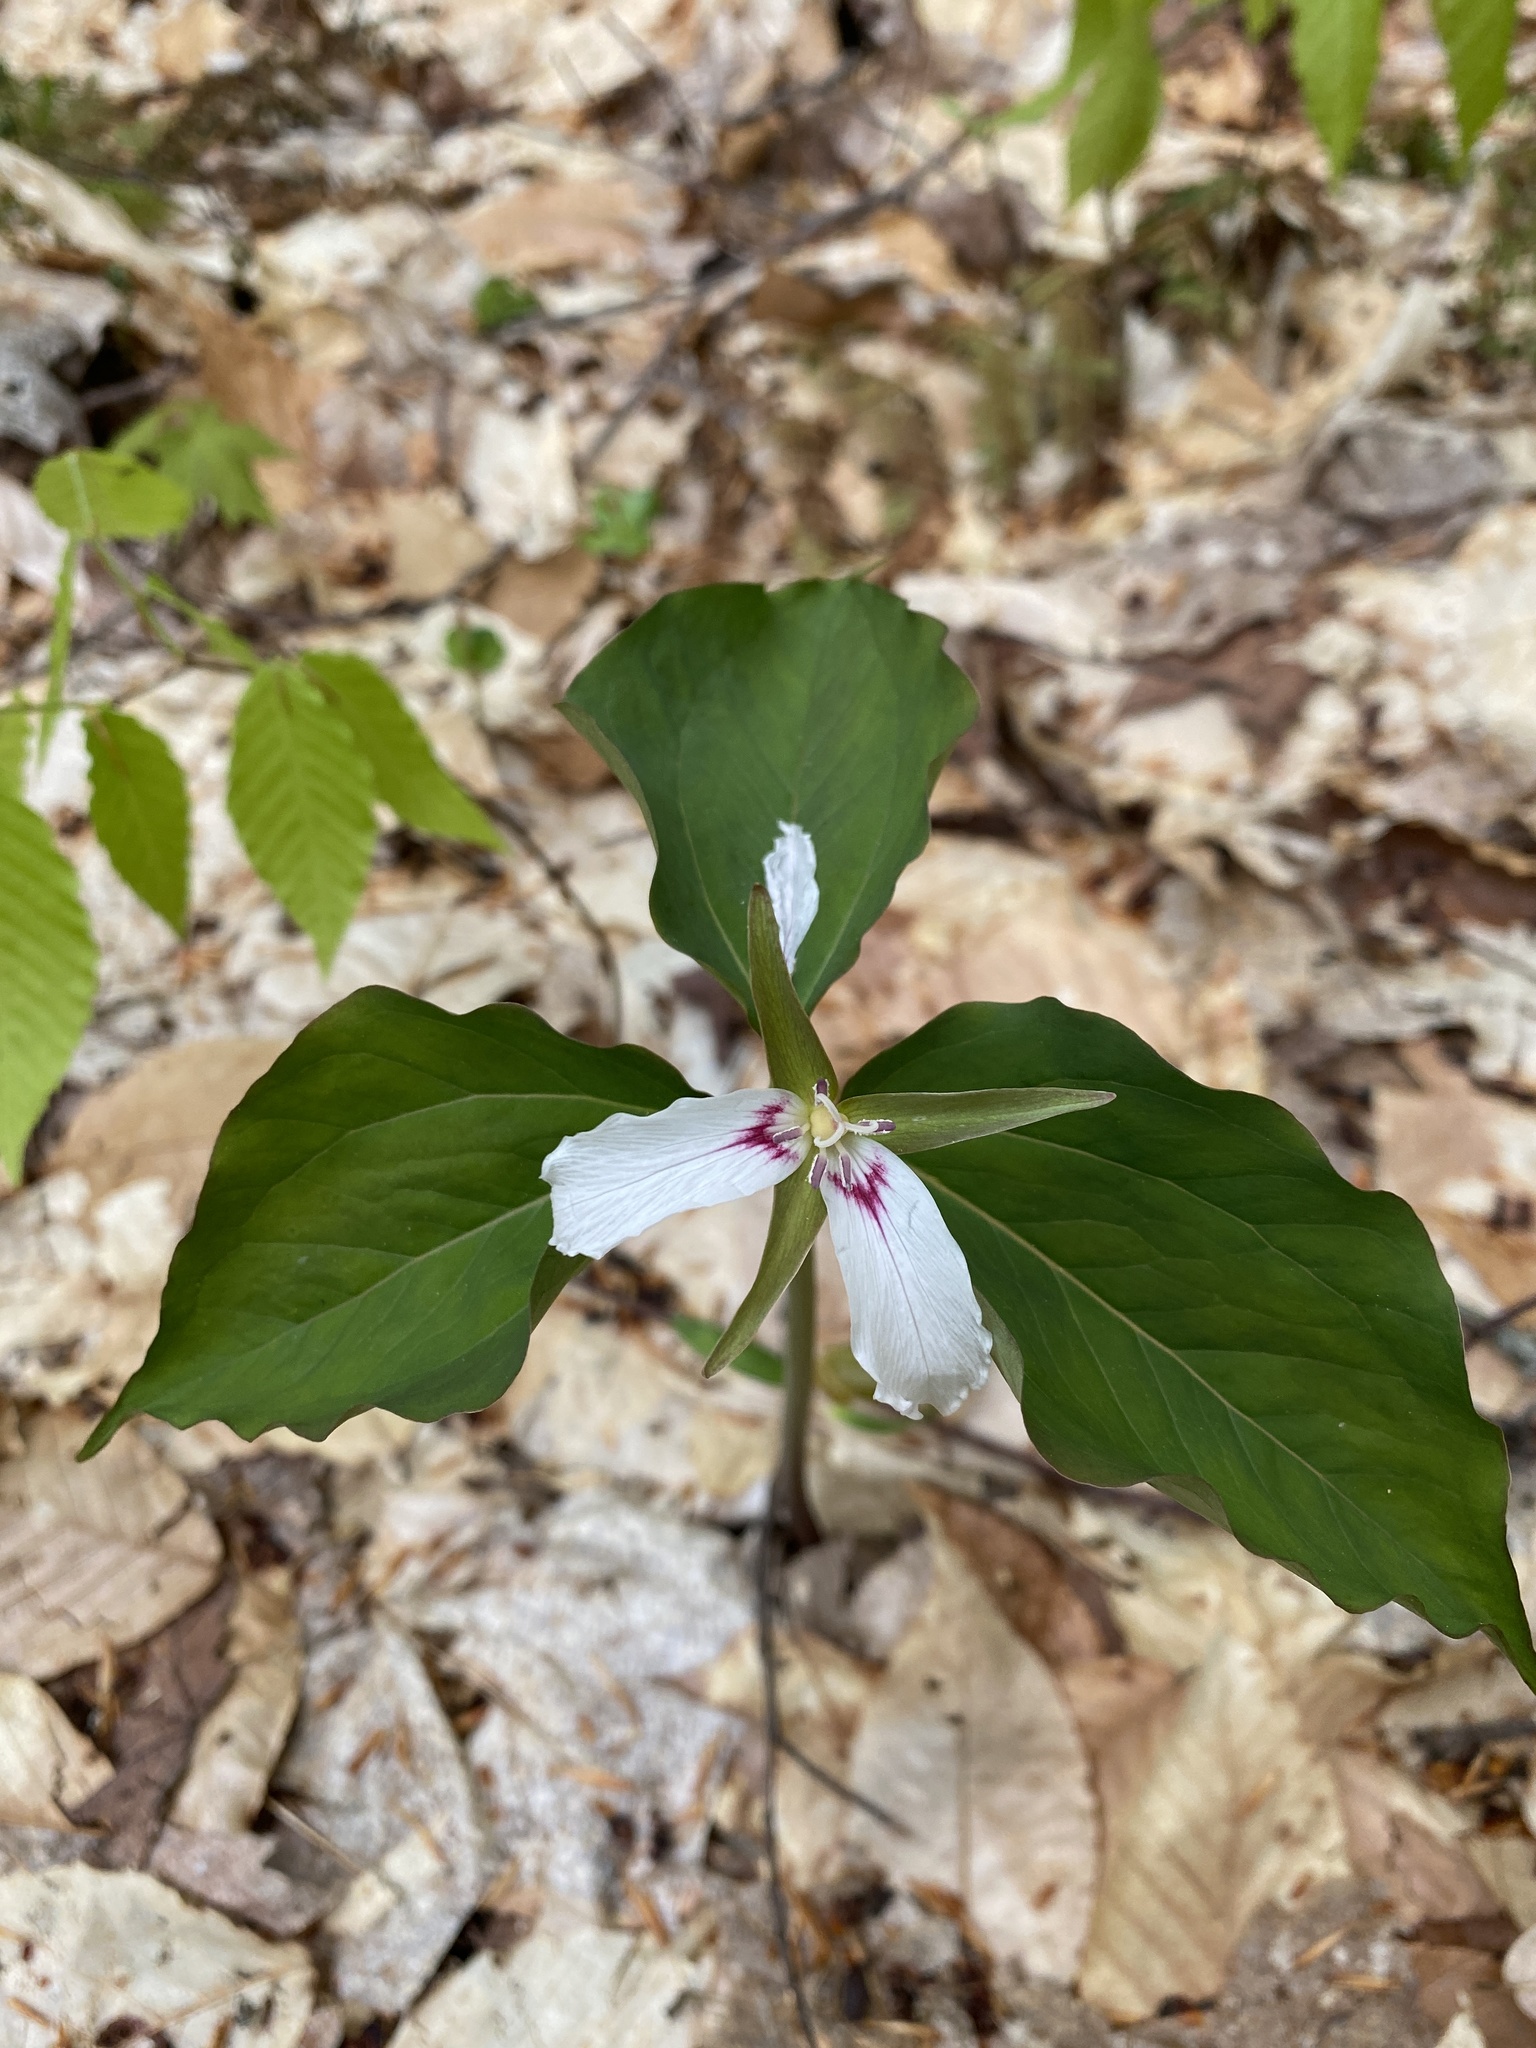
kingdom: Plantae
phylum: Tracheophyta
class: Liliopsida
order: Liliales
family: Melanthiaceae
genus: Trillium
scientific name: Trillium undulatum
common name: Paint trillium
